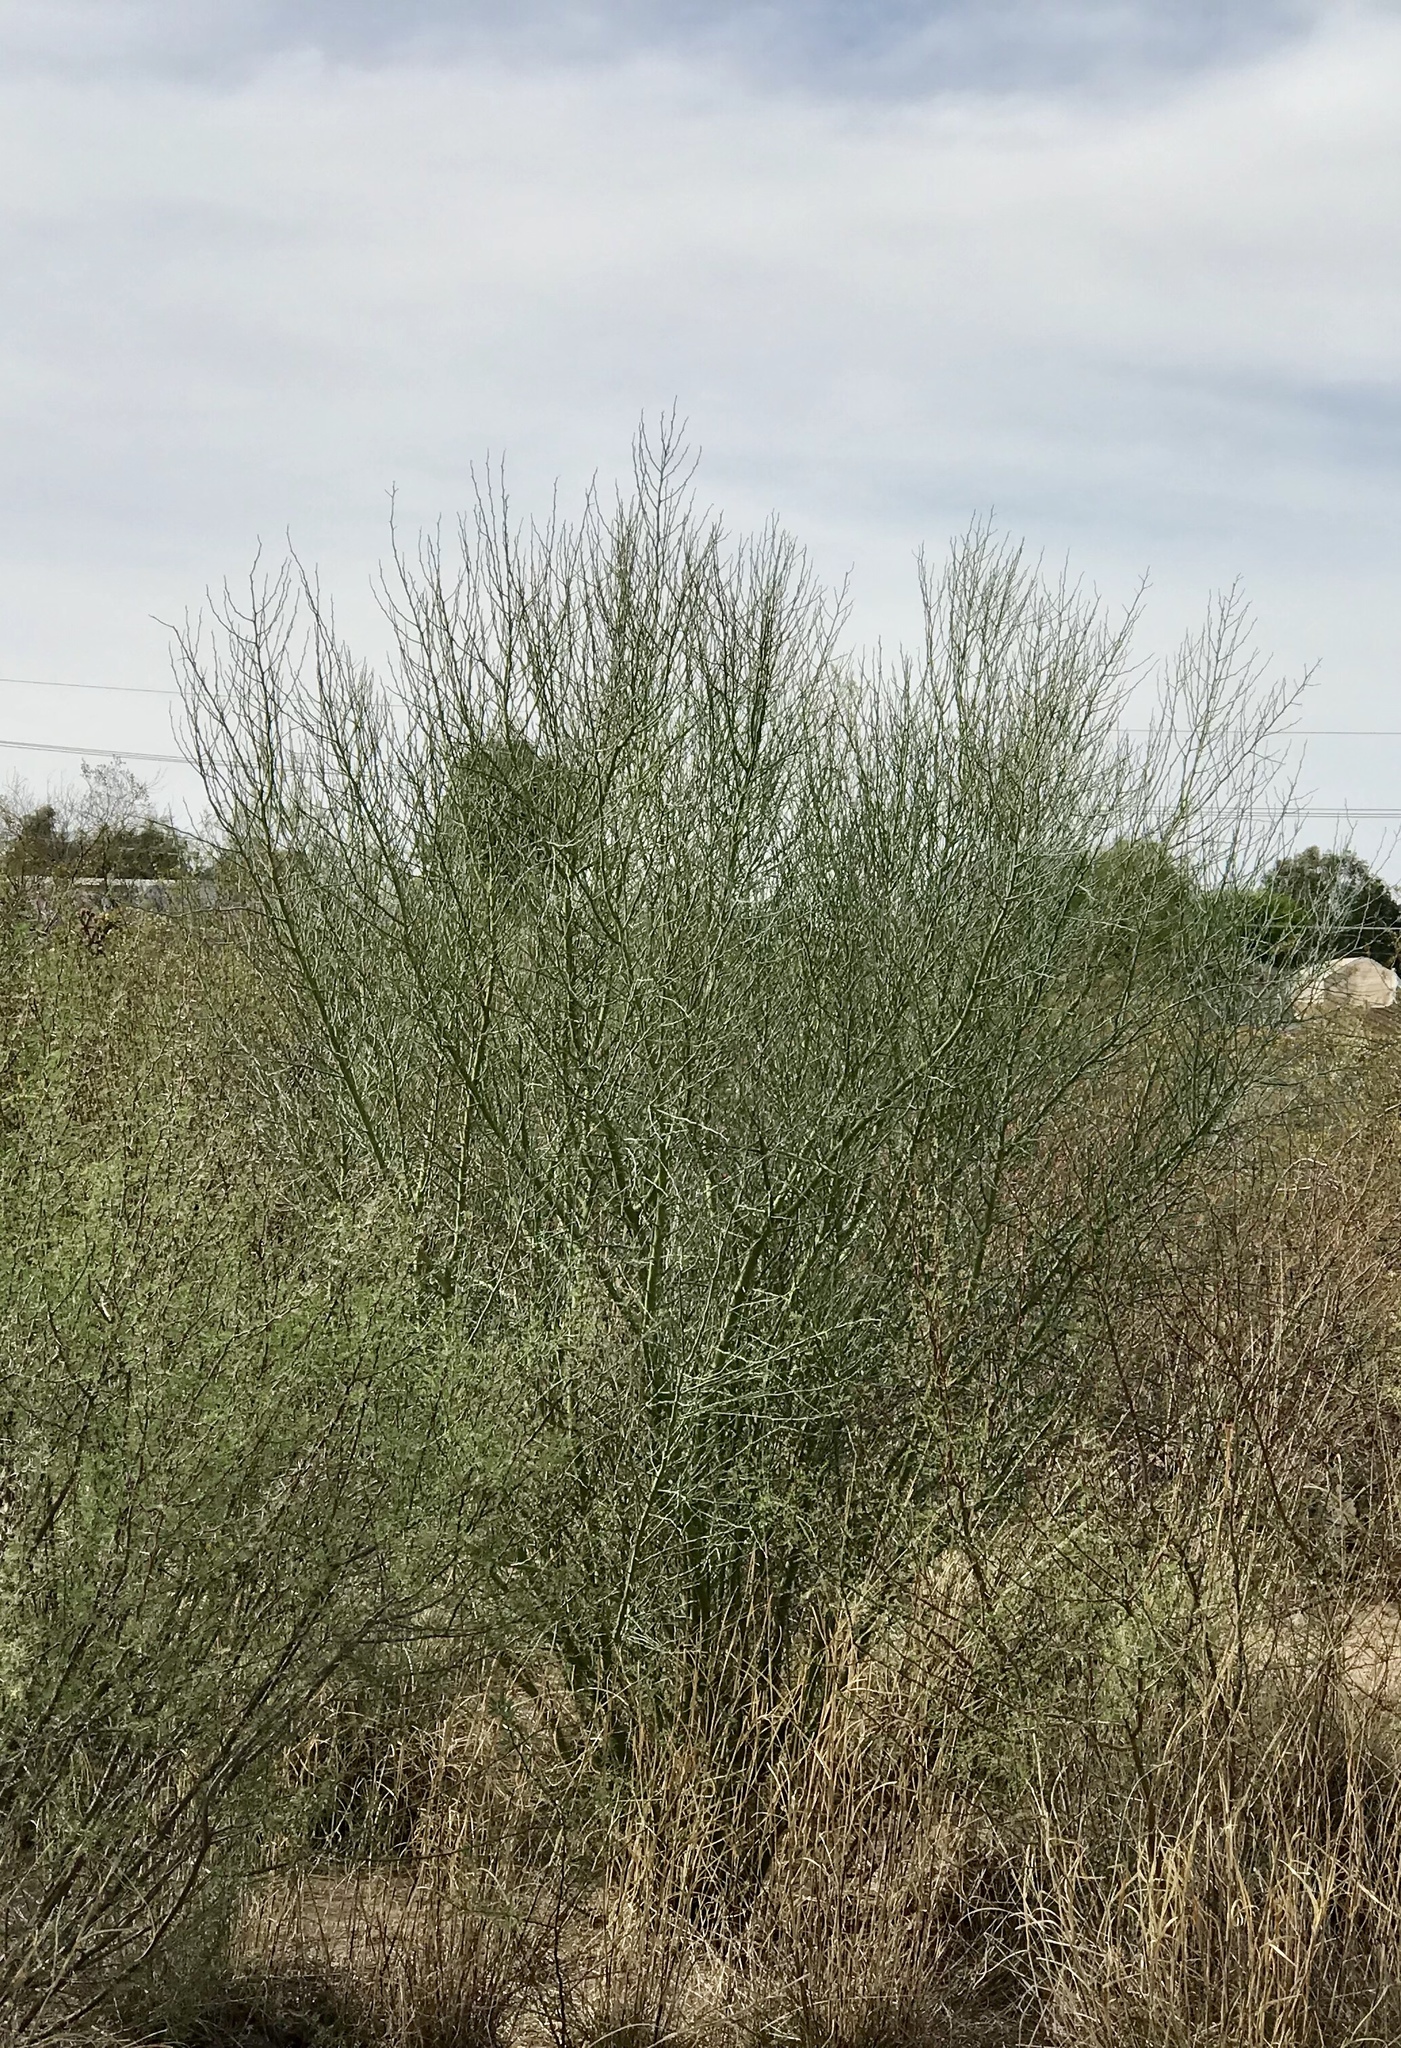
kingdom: Plantae
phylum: Tracheophyta
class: Magnoliopsida
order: Fabales
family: Fabaceae
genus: Parkinsonia
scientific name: Parkinsonia florida
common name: Blue paloverde
